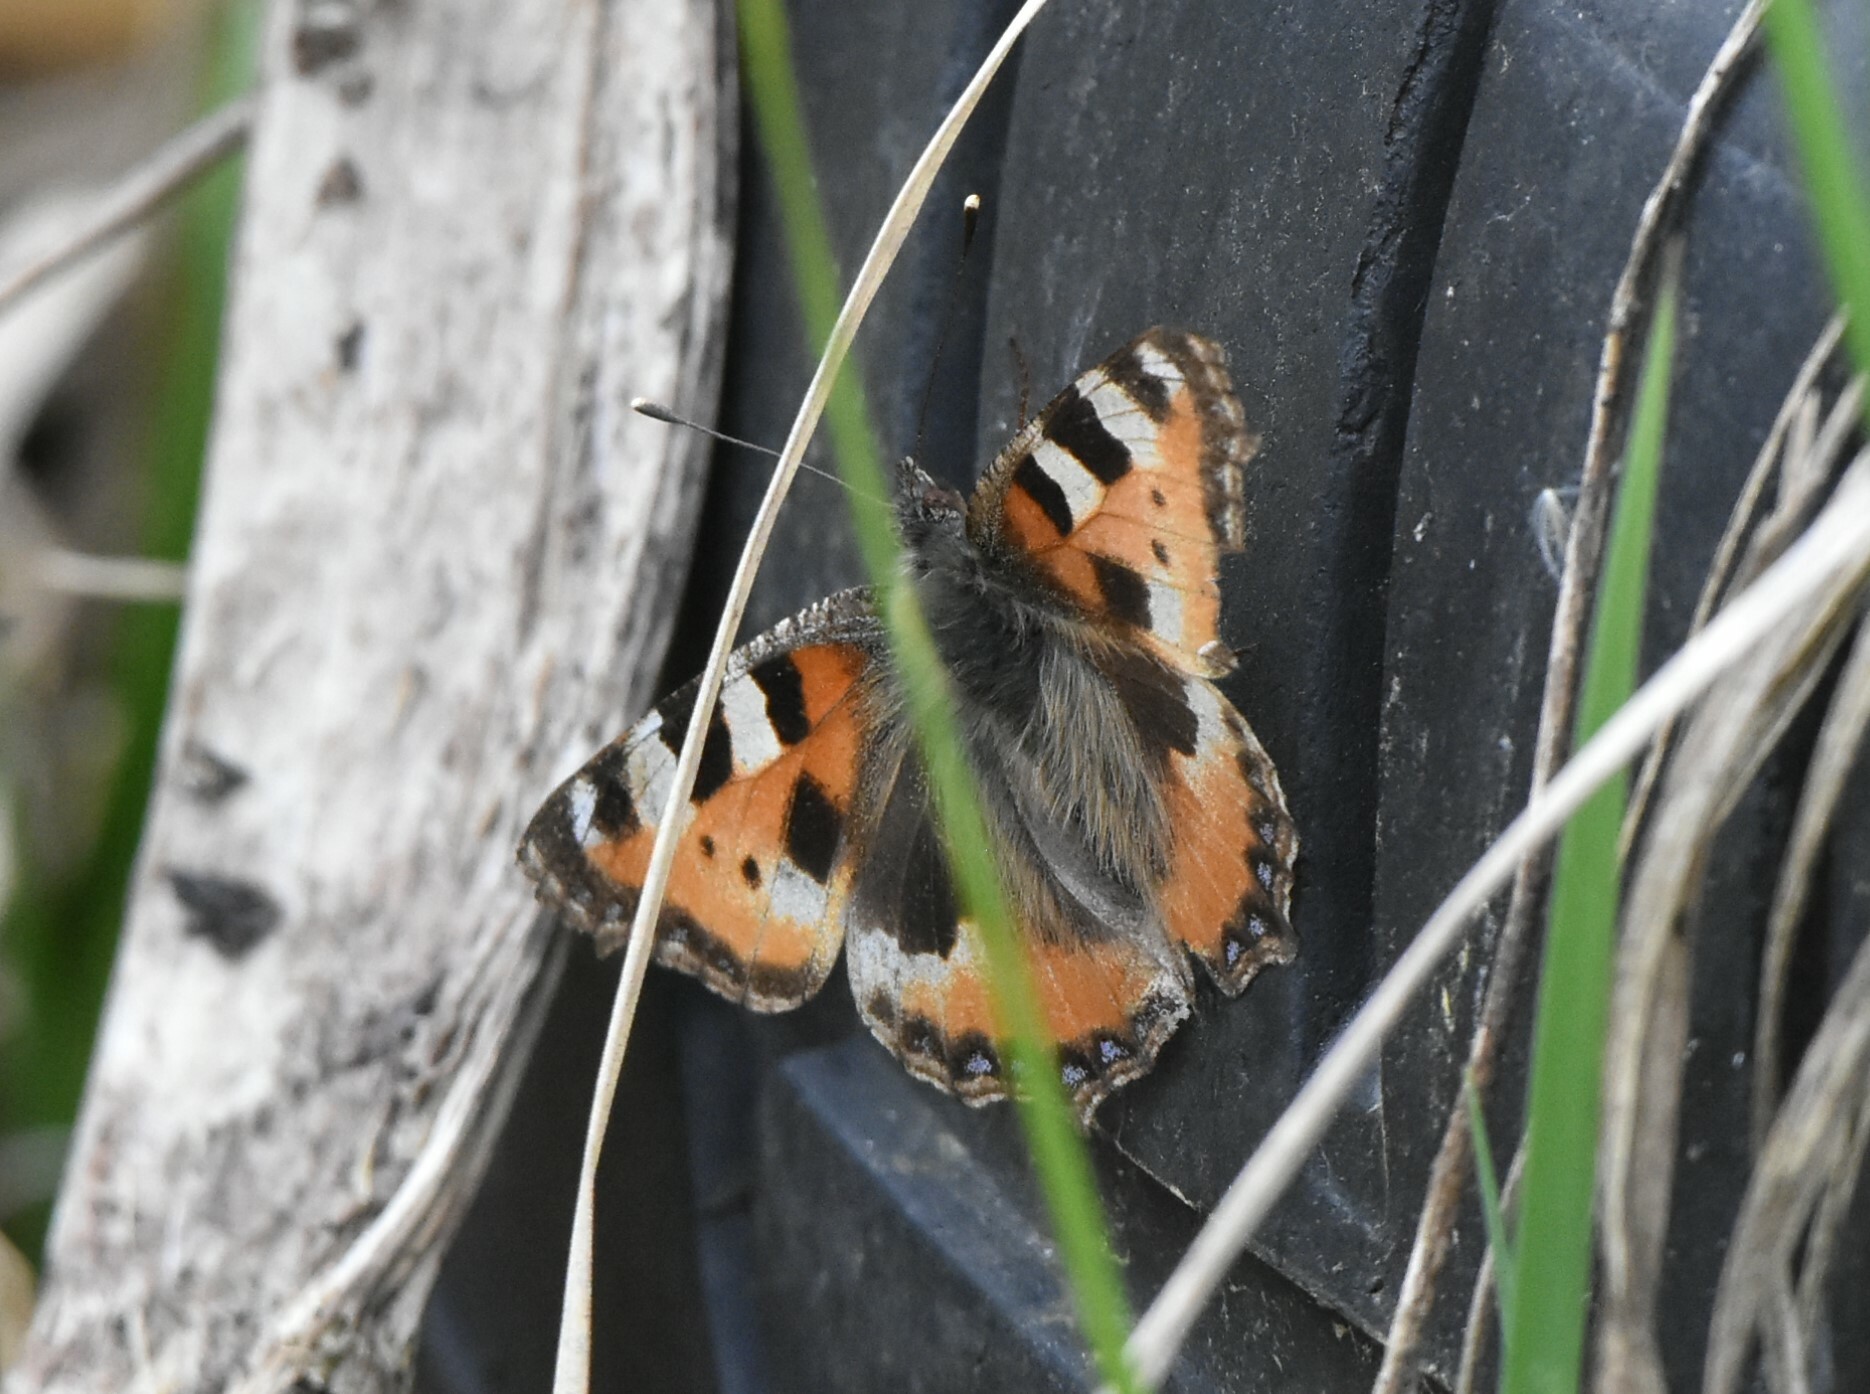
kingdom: Animalia
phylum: Arthropoda
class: Insecta
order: Lepidoptera
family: Nymphalidae
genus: Aglais
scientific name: Aglais urticae
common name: Small tortoiseshell
